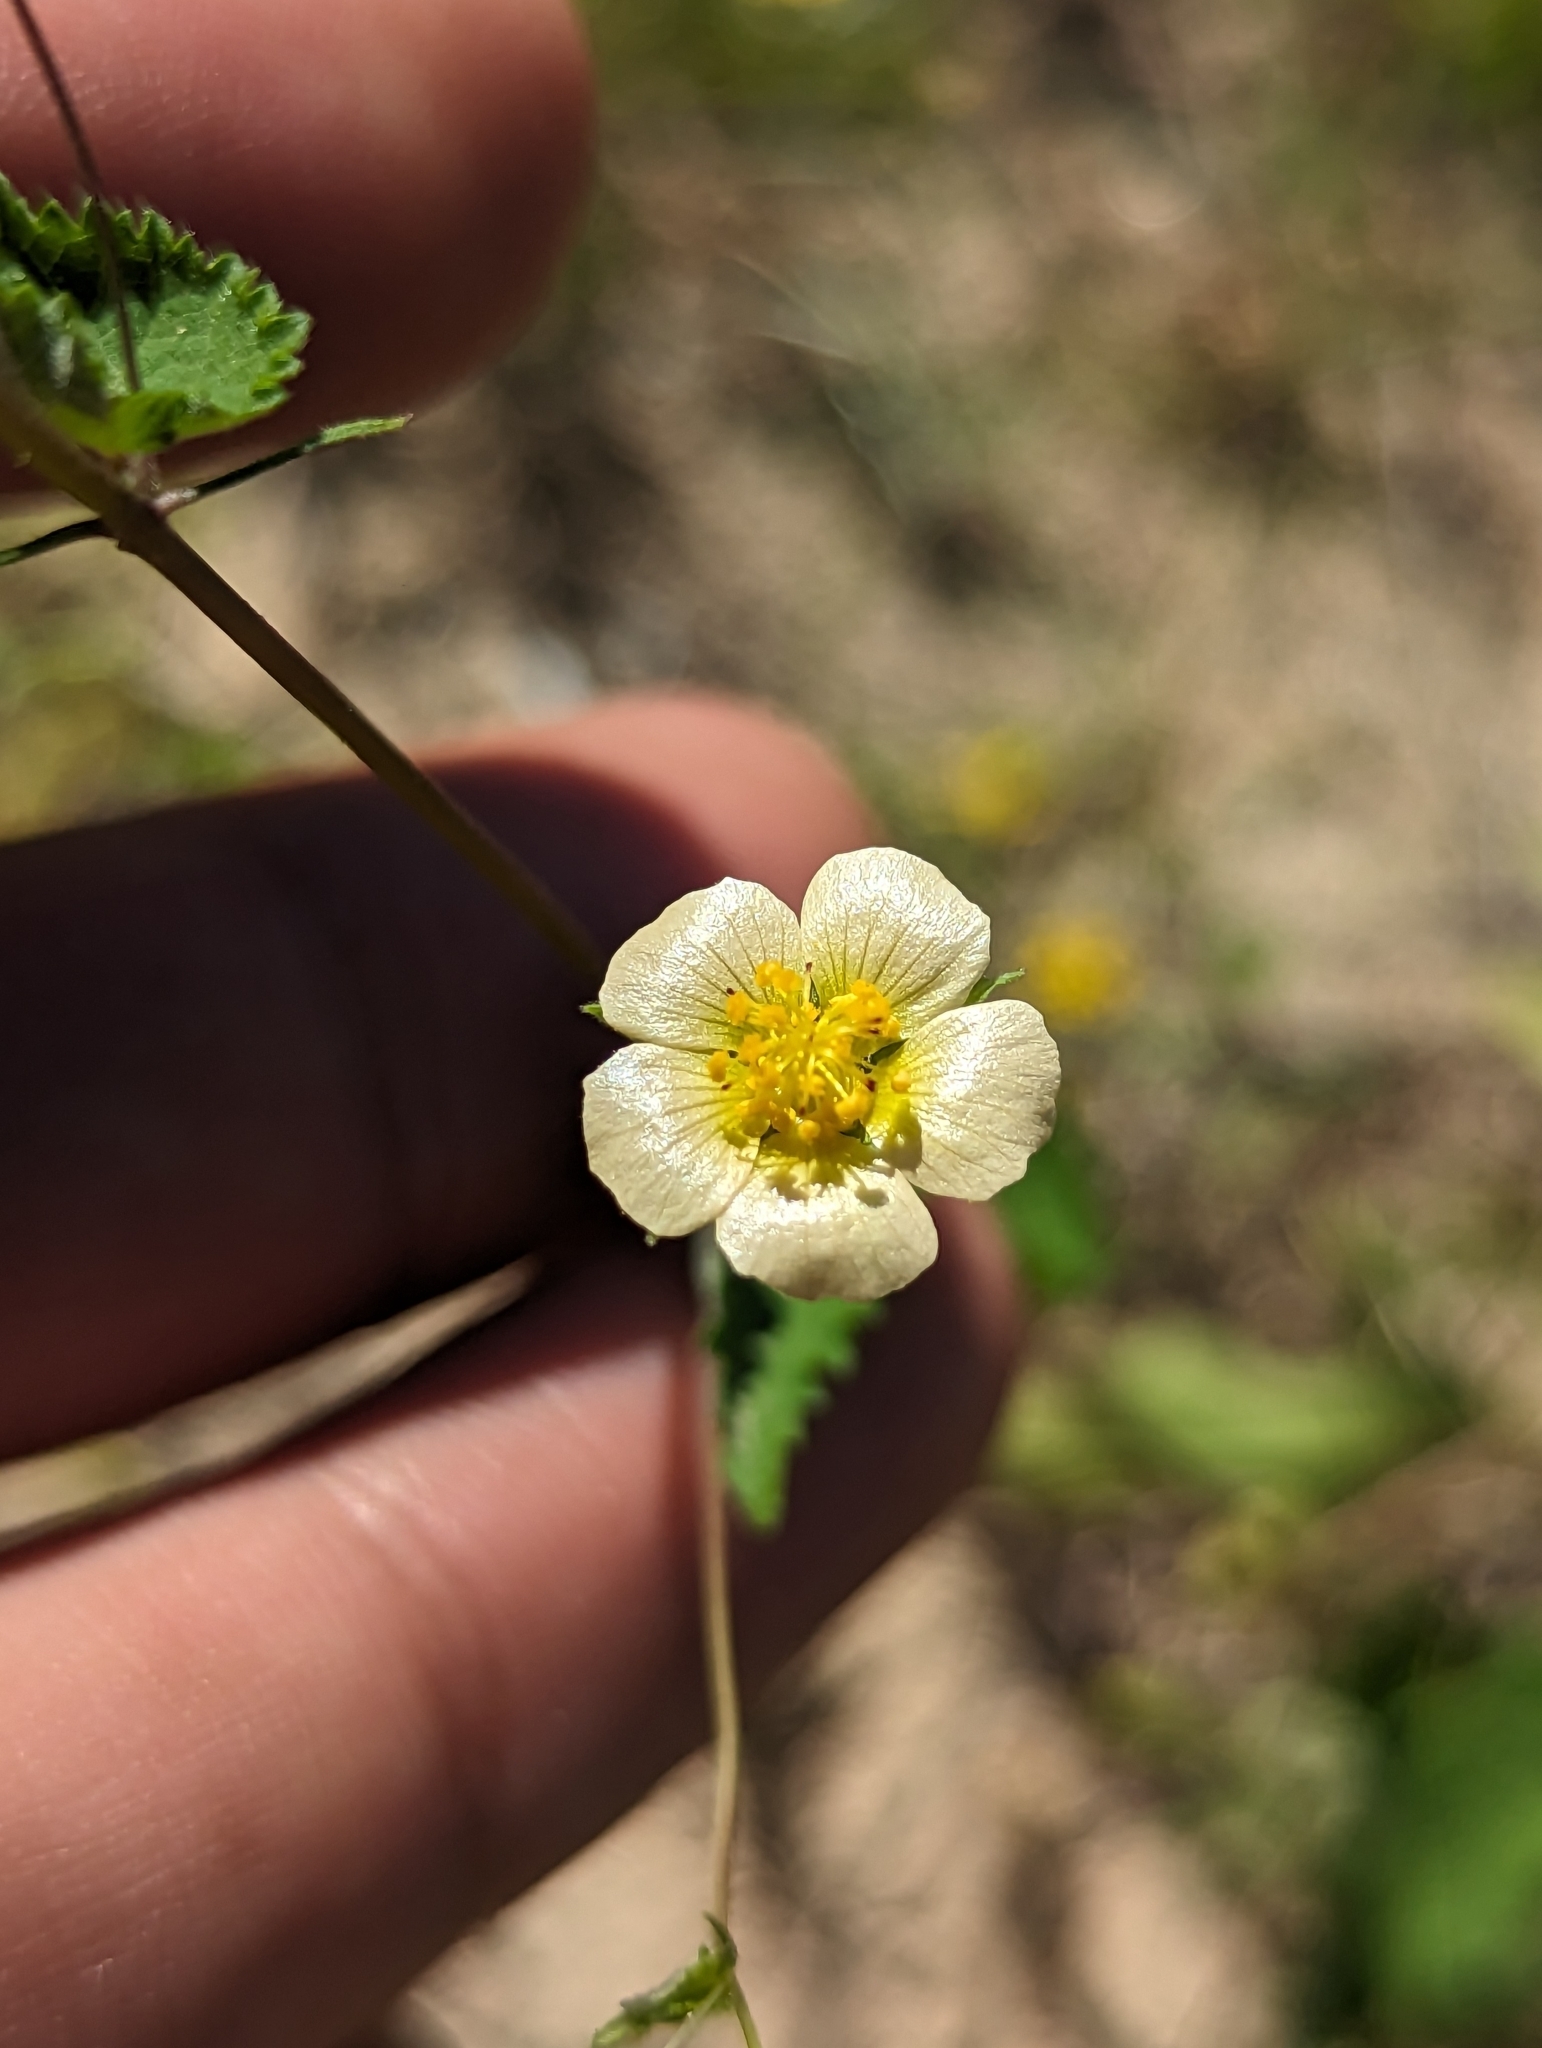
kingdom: Plantae
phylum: Tracheophyta
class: Magnoliopsida
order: Malvales
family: Malvaceae
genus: Herissantia
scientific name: Herissantia crispa
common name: Bladdermallow
